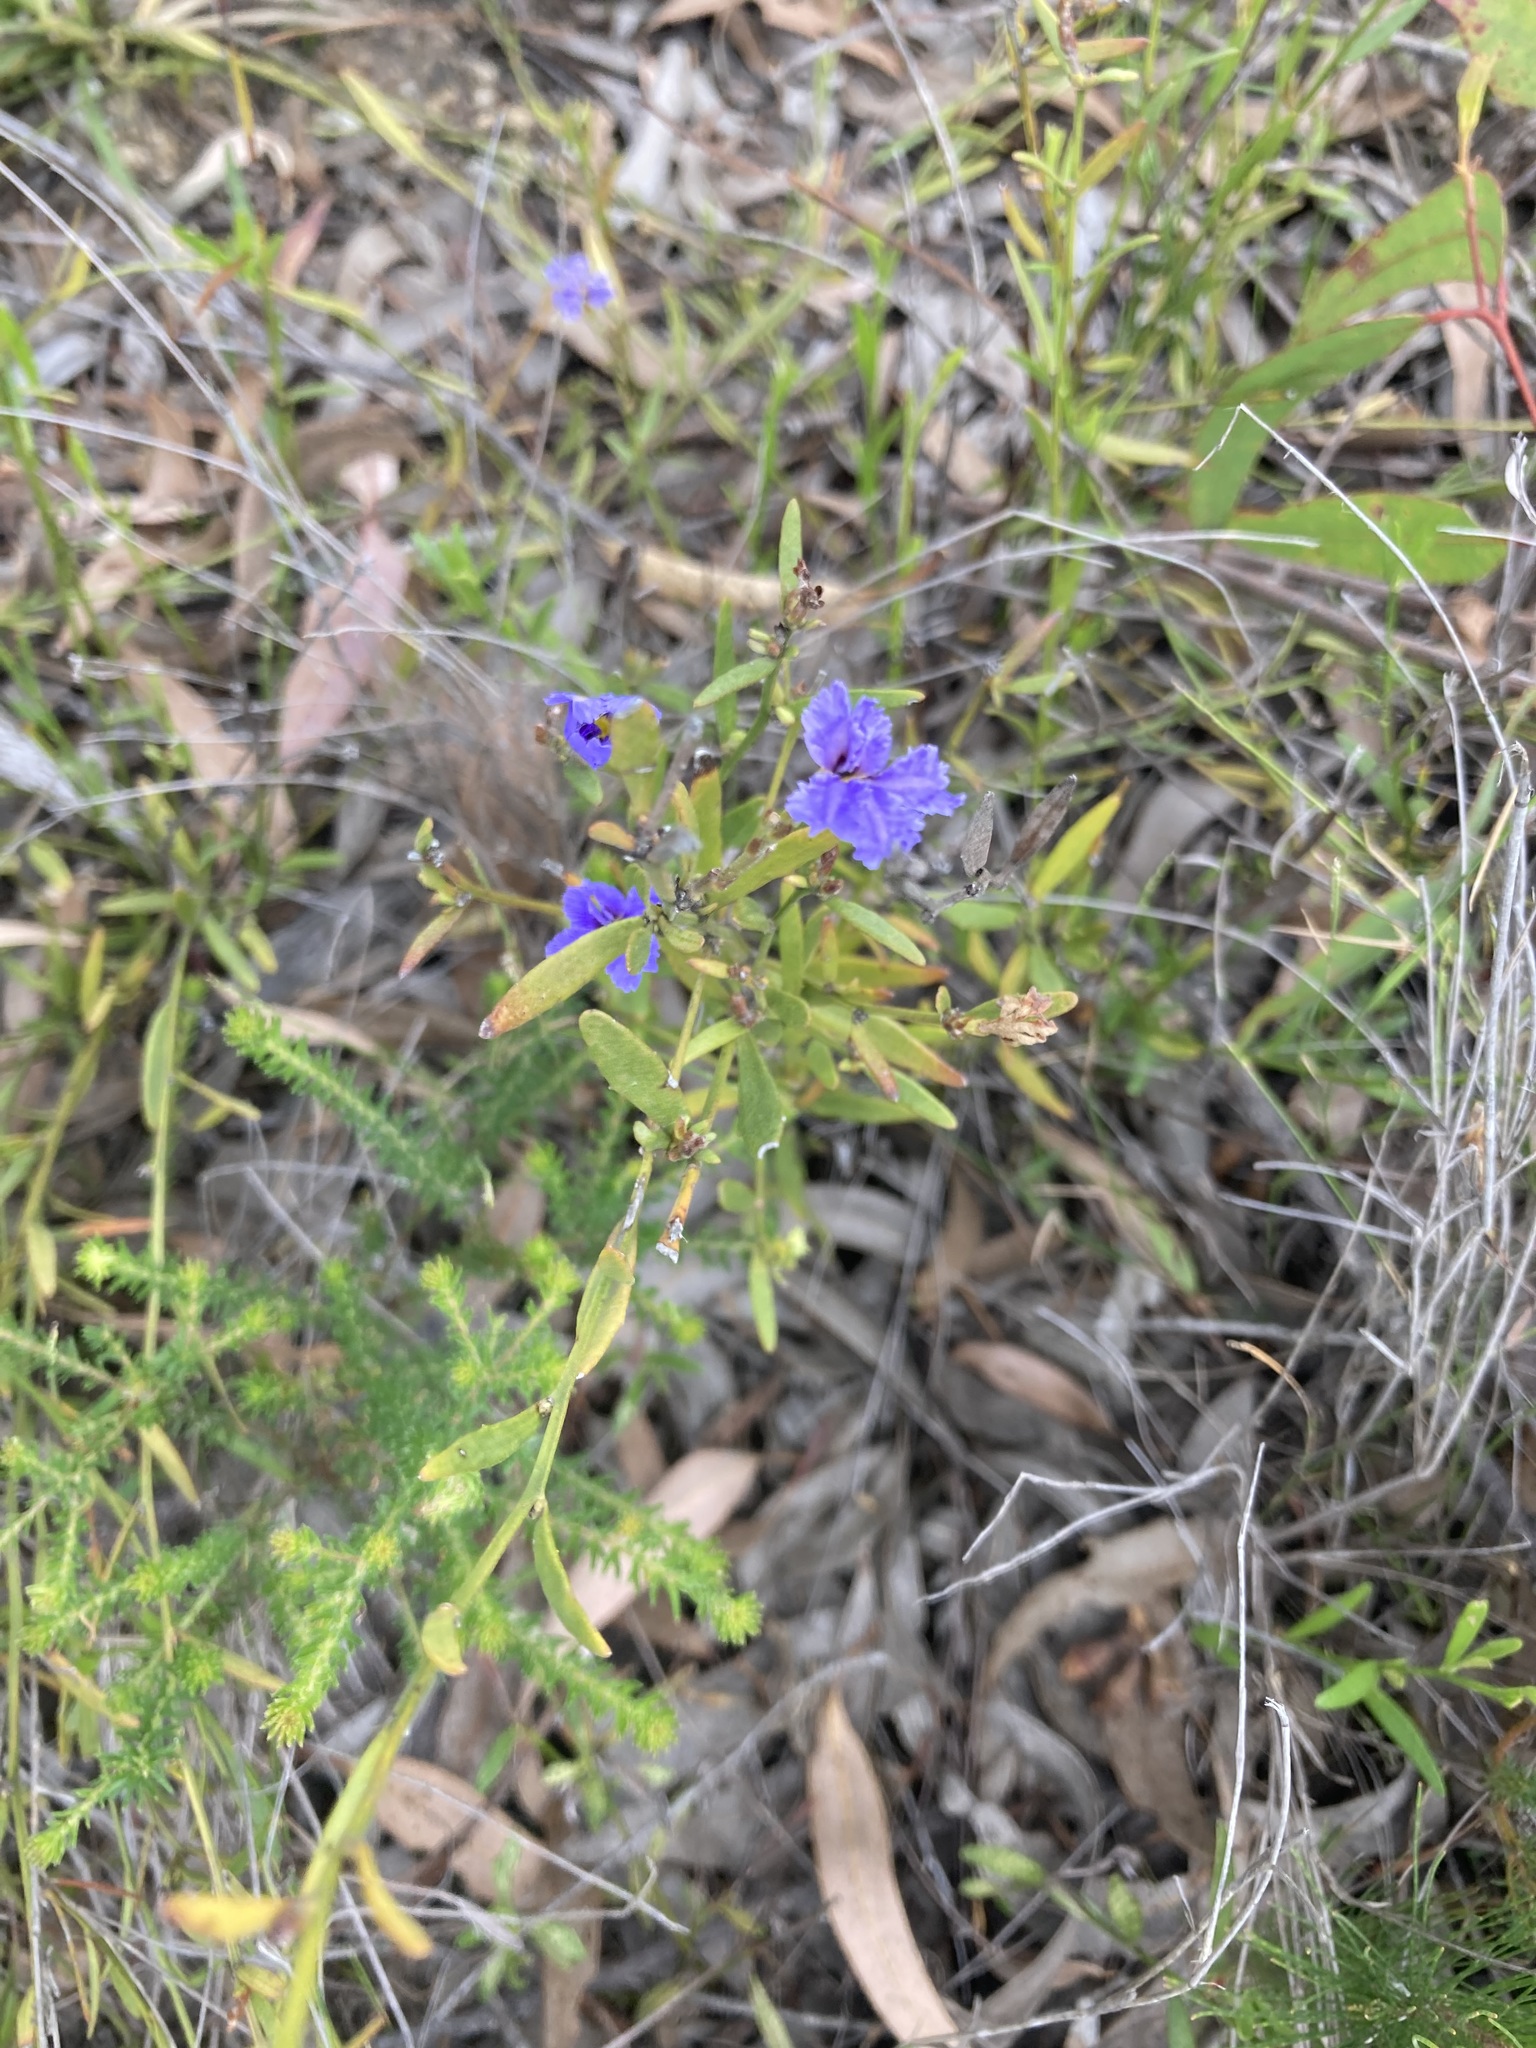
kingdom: Plantae
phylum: Tracheophyta
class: Magnoliopsida
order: Asterales
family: Goodeniaceae
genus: Dampiera
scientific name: Dampiera stricta
